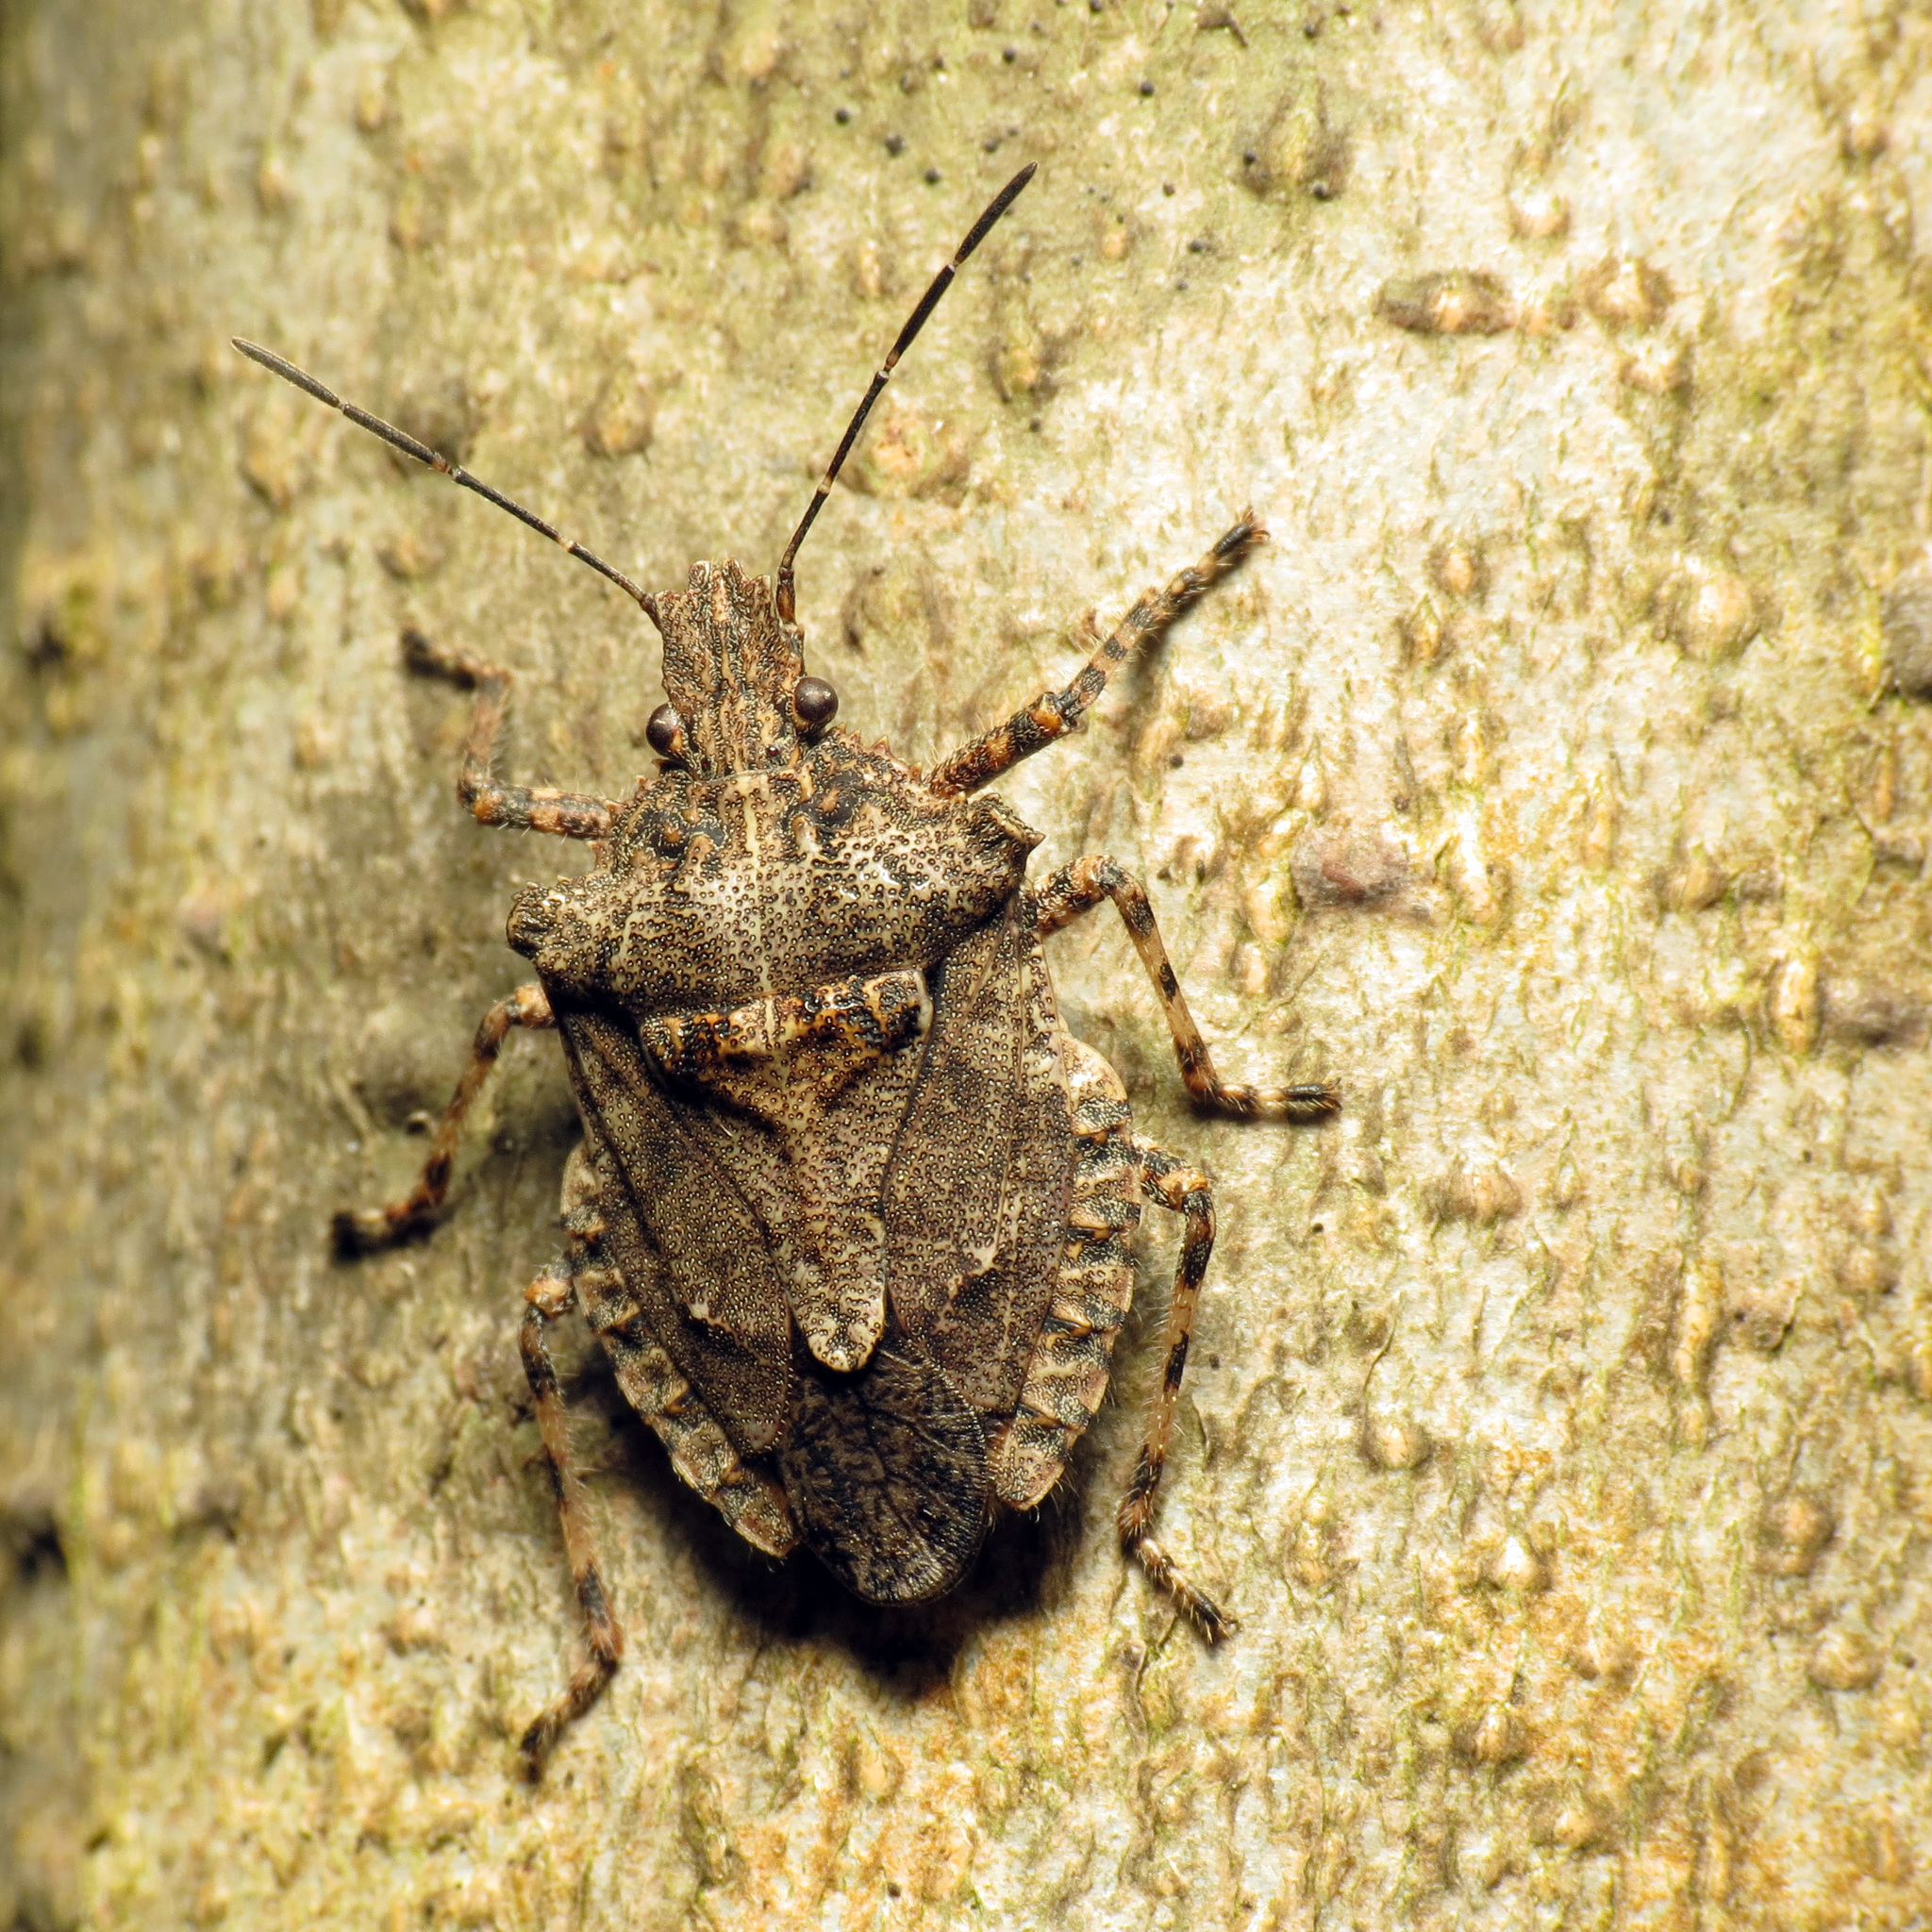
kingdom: Animalia
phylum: Arthropoda
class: Insecta
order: Hemiptera
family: Pentatomidae
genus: Brochymena
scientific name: Brochymena arborea
